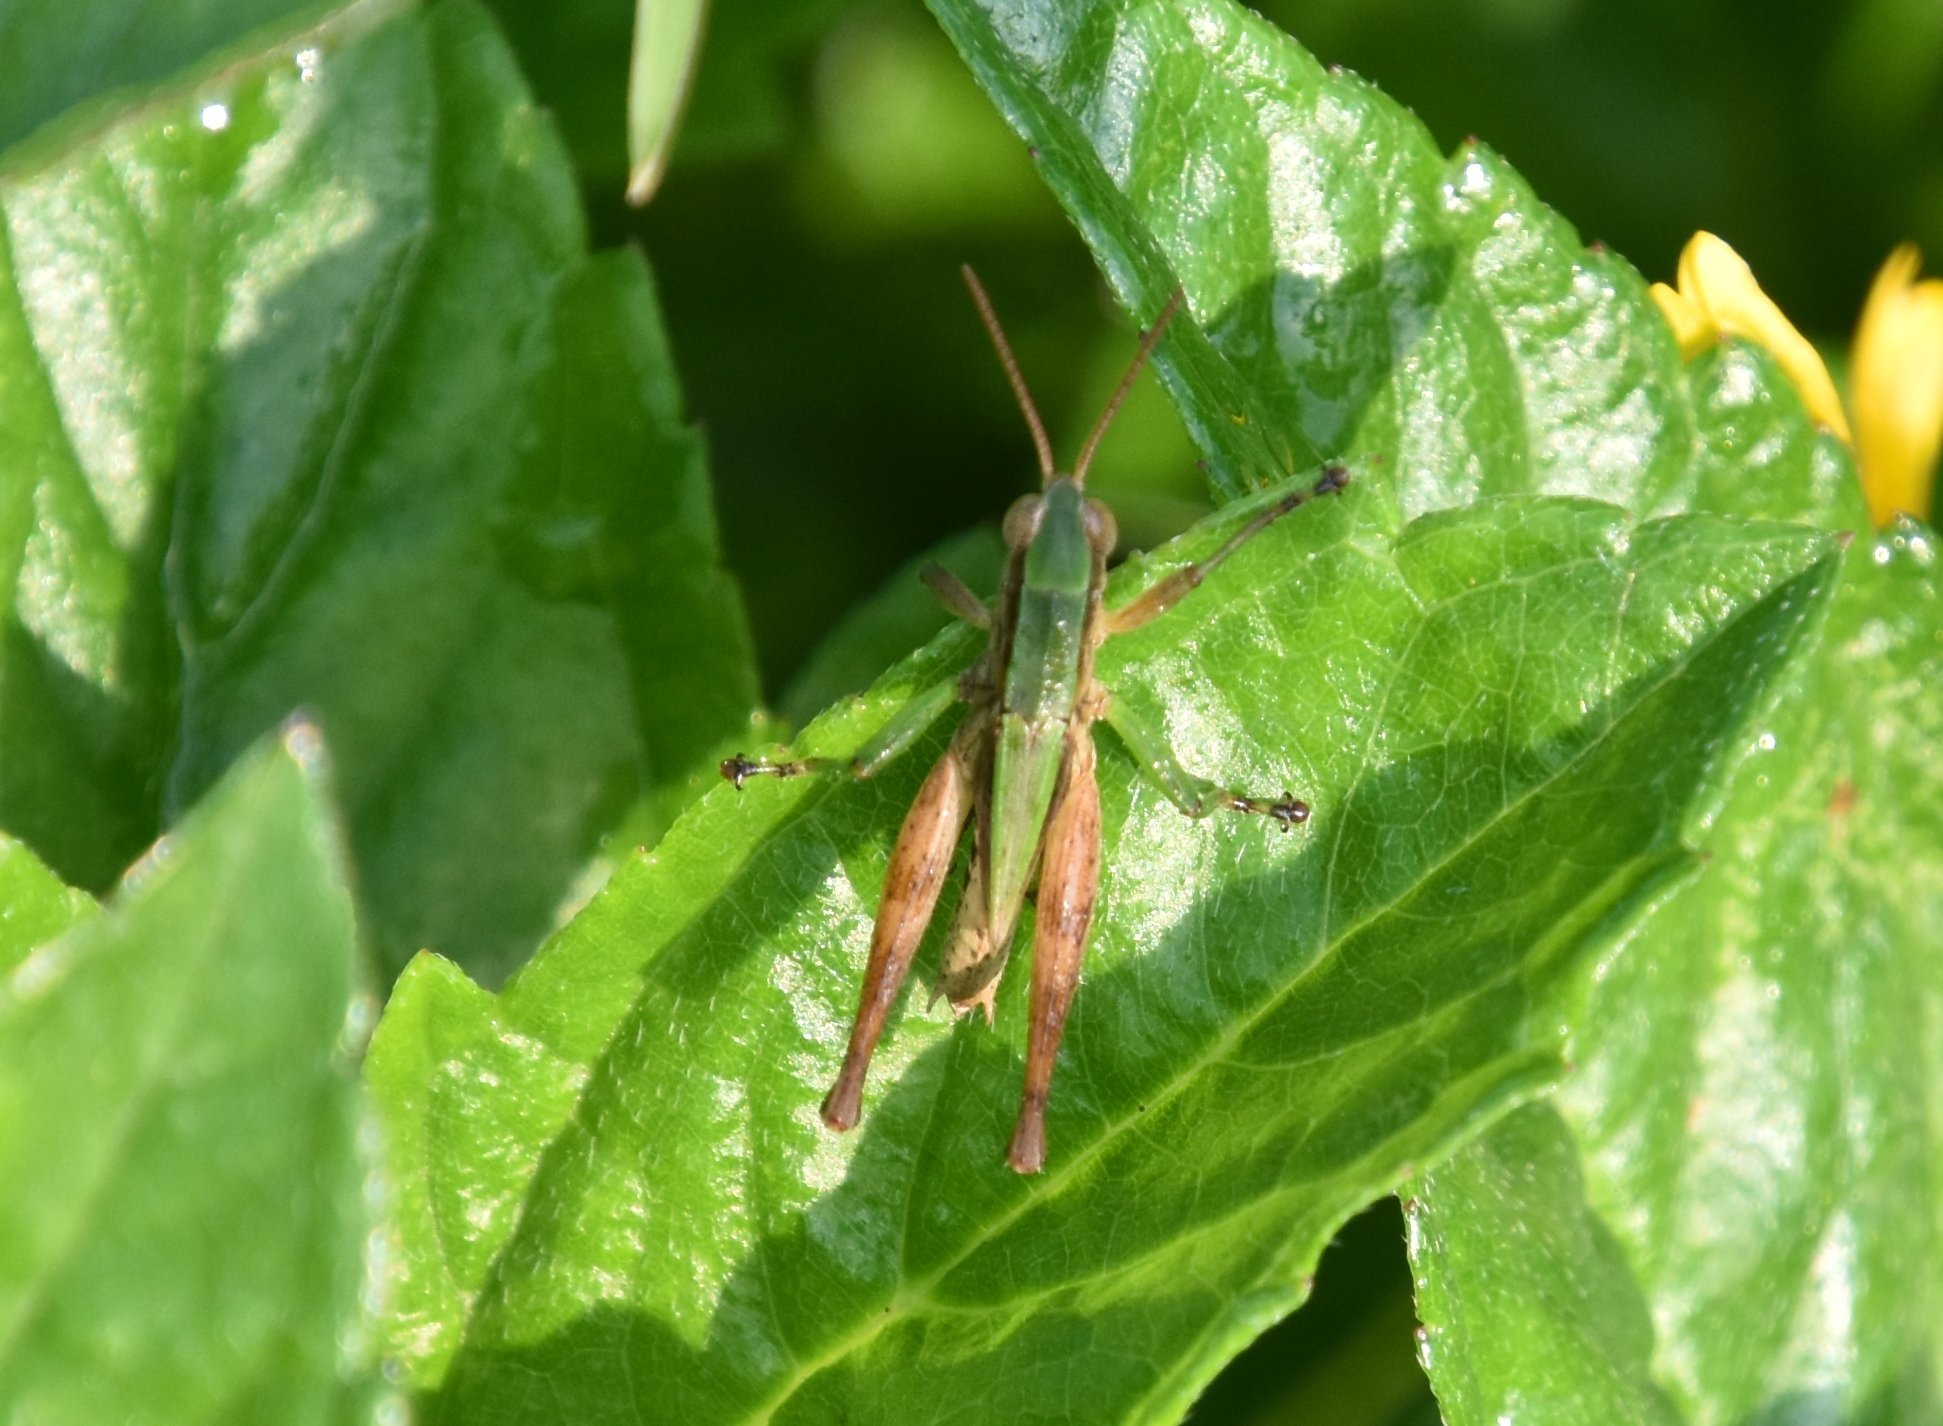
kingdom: Animalia
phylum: Arthropoda
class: Insecta
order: Orthoptera
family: Acrididae
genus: Dichromorpha
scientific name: Dichromorpha viridis
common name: Short-winged green grasshopper
